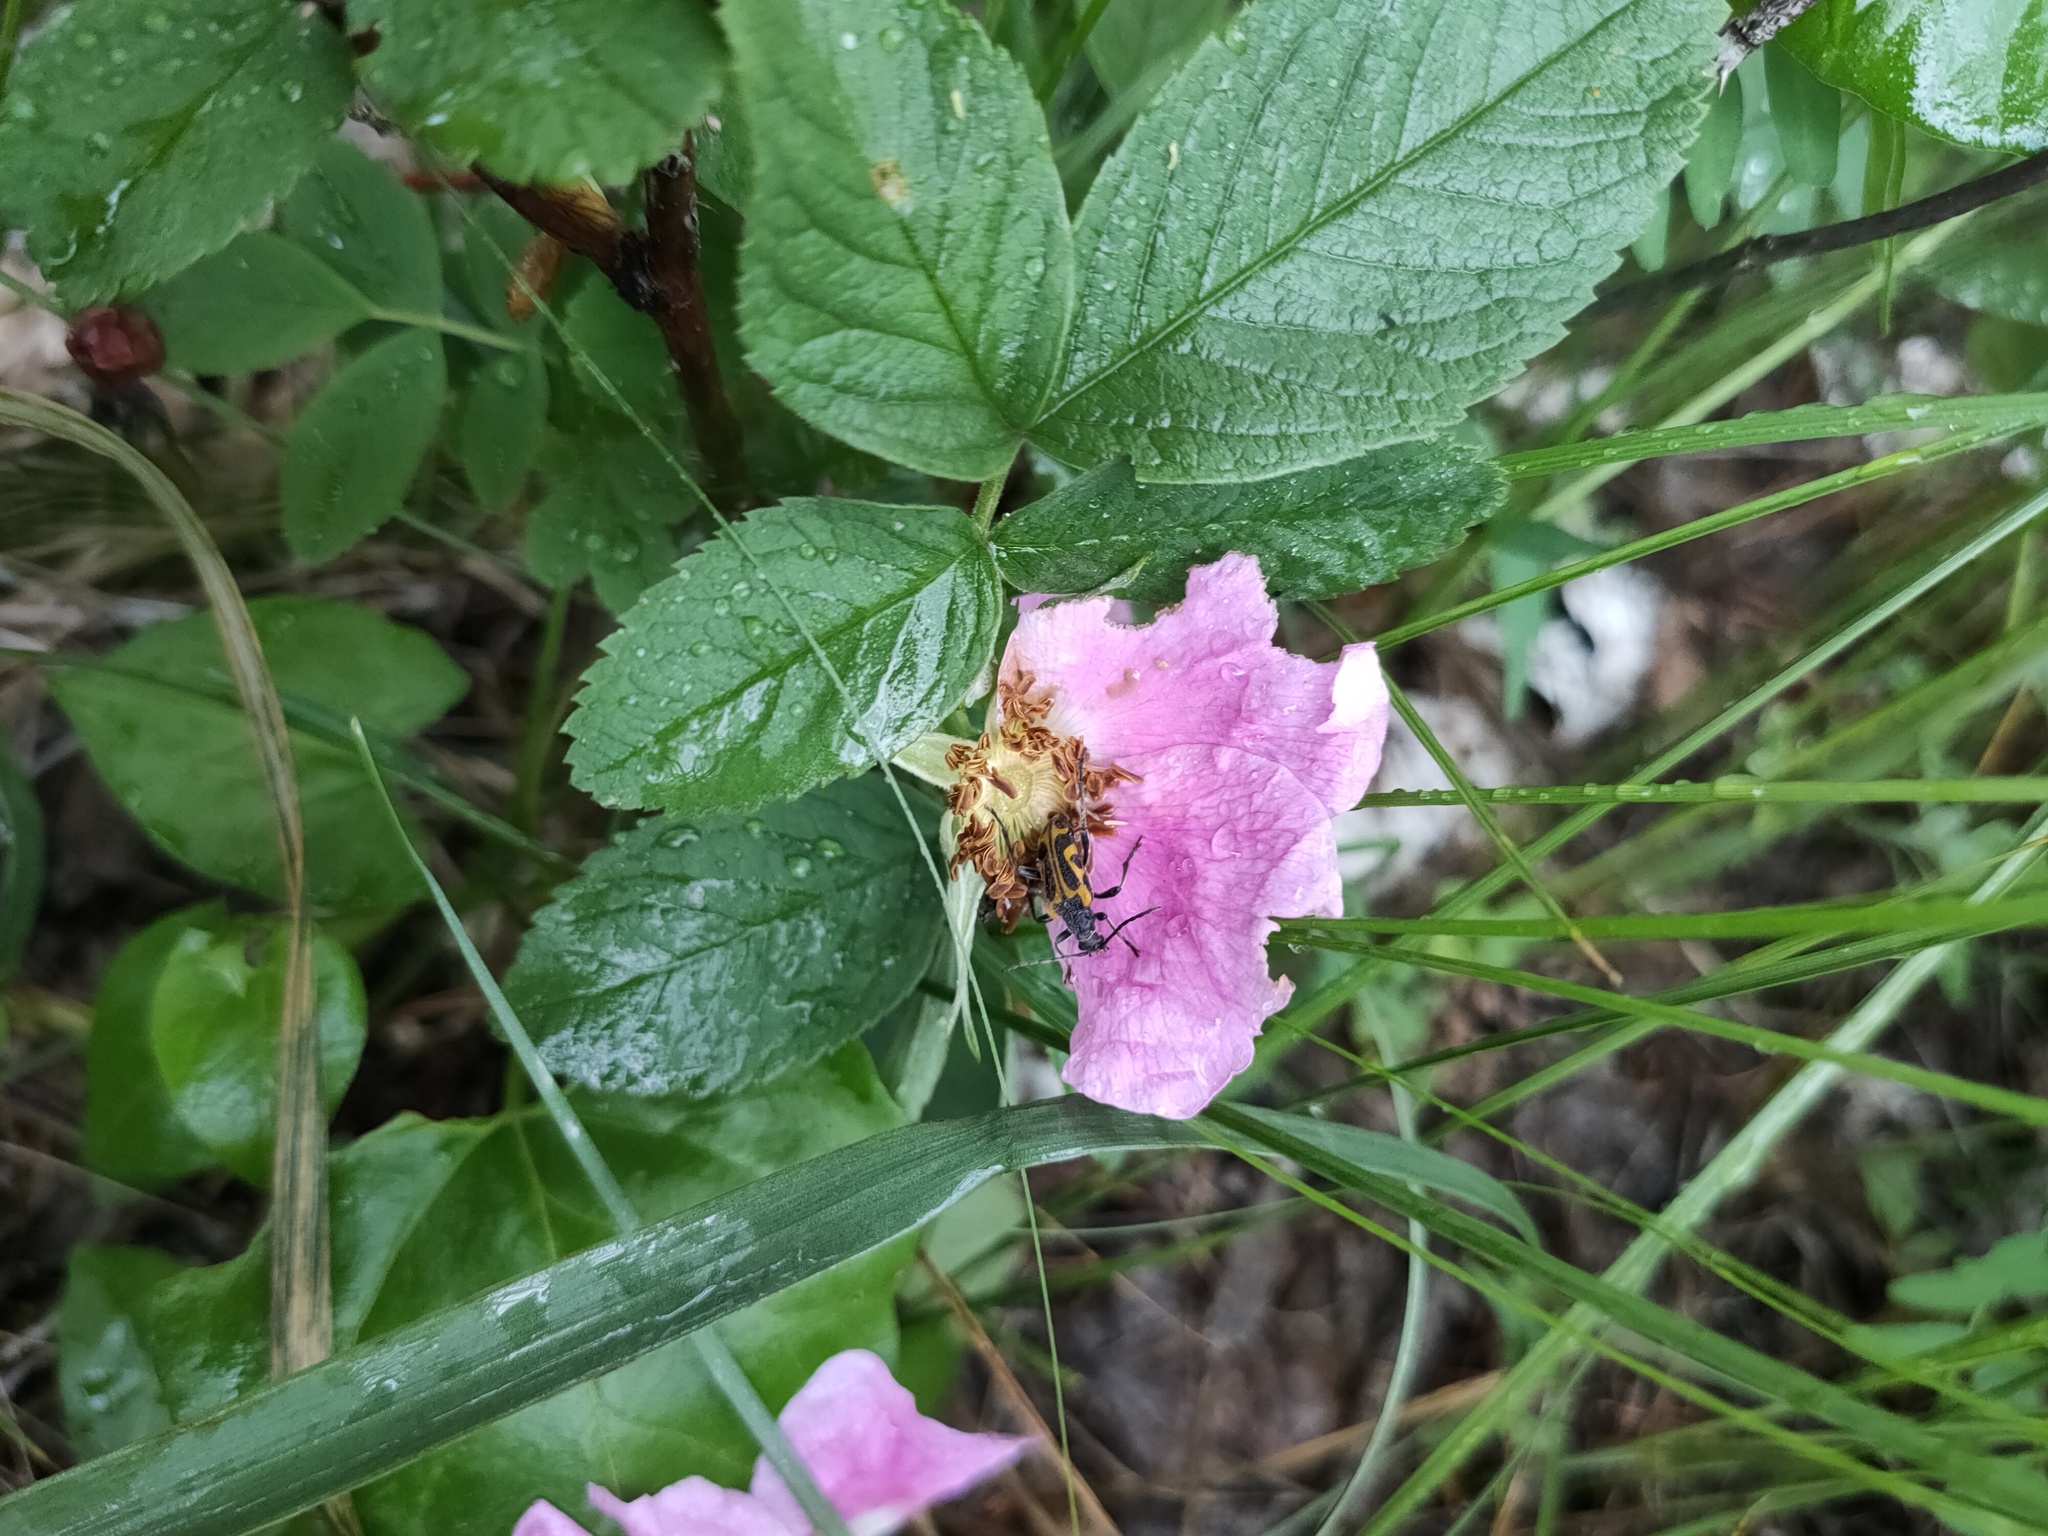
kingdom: Plantae
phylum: Tracheophyta
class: Magnoliopsida
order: Rosales
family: Rosaceae
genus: Rosa
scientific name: Rosa
